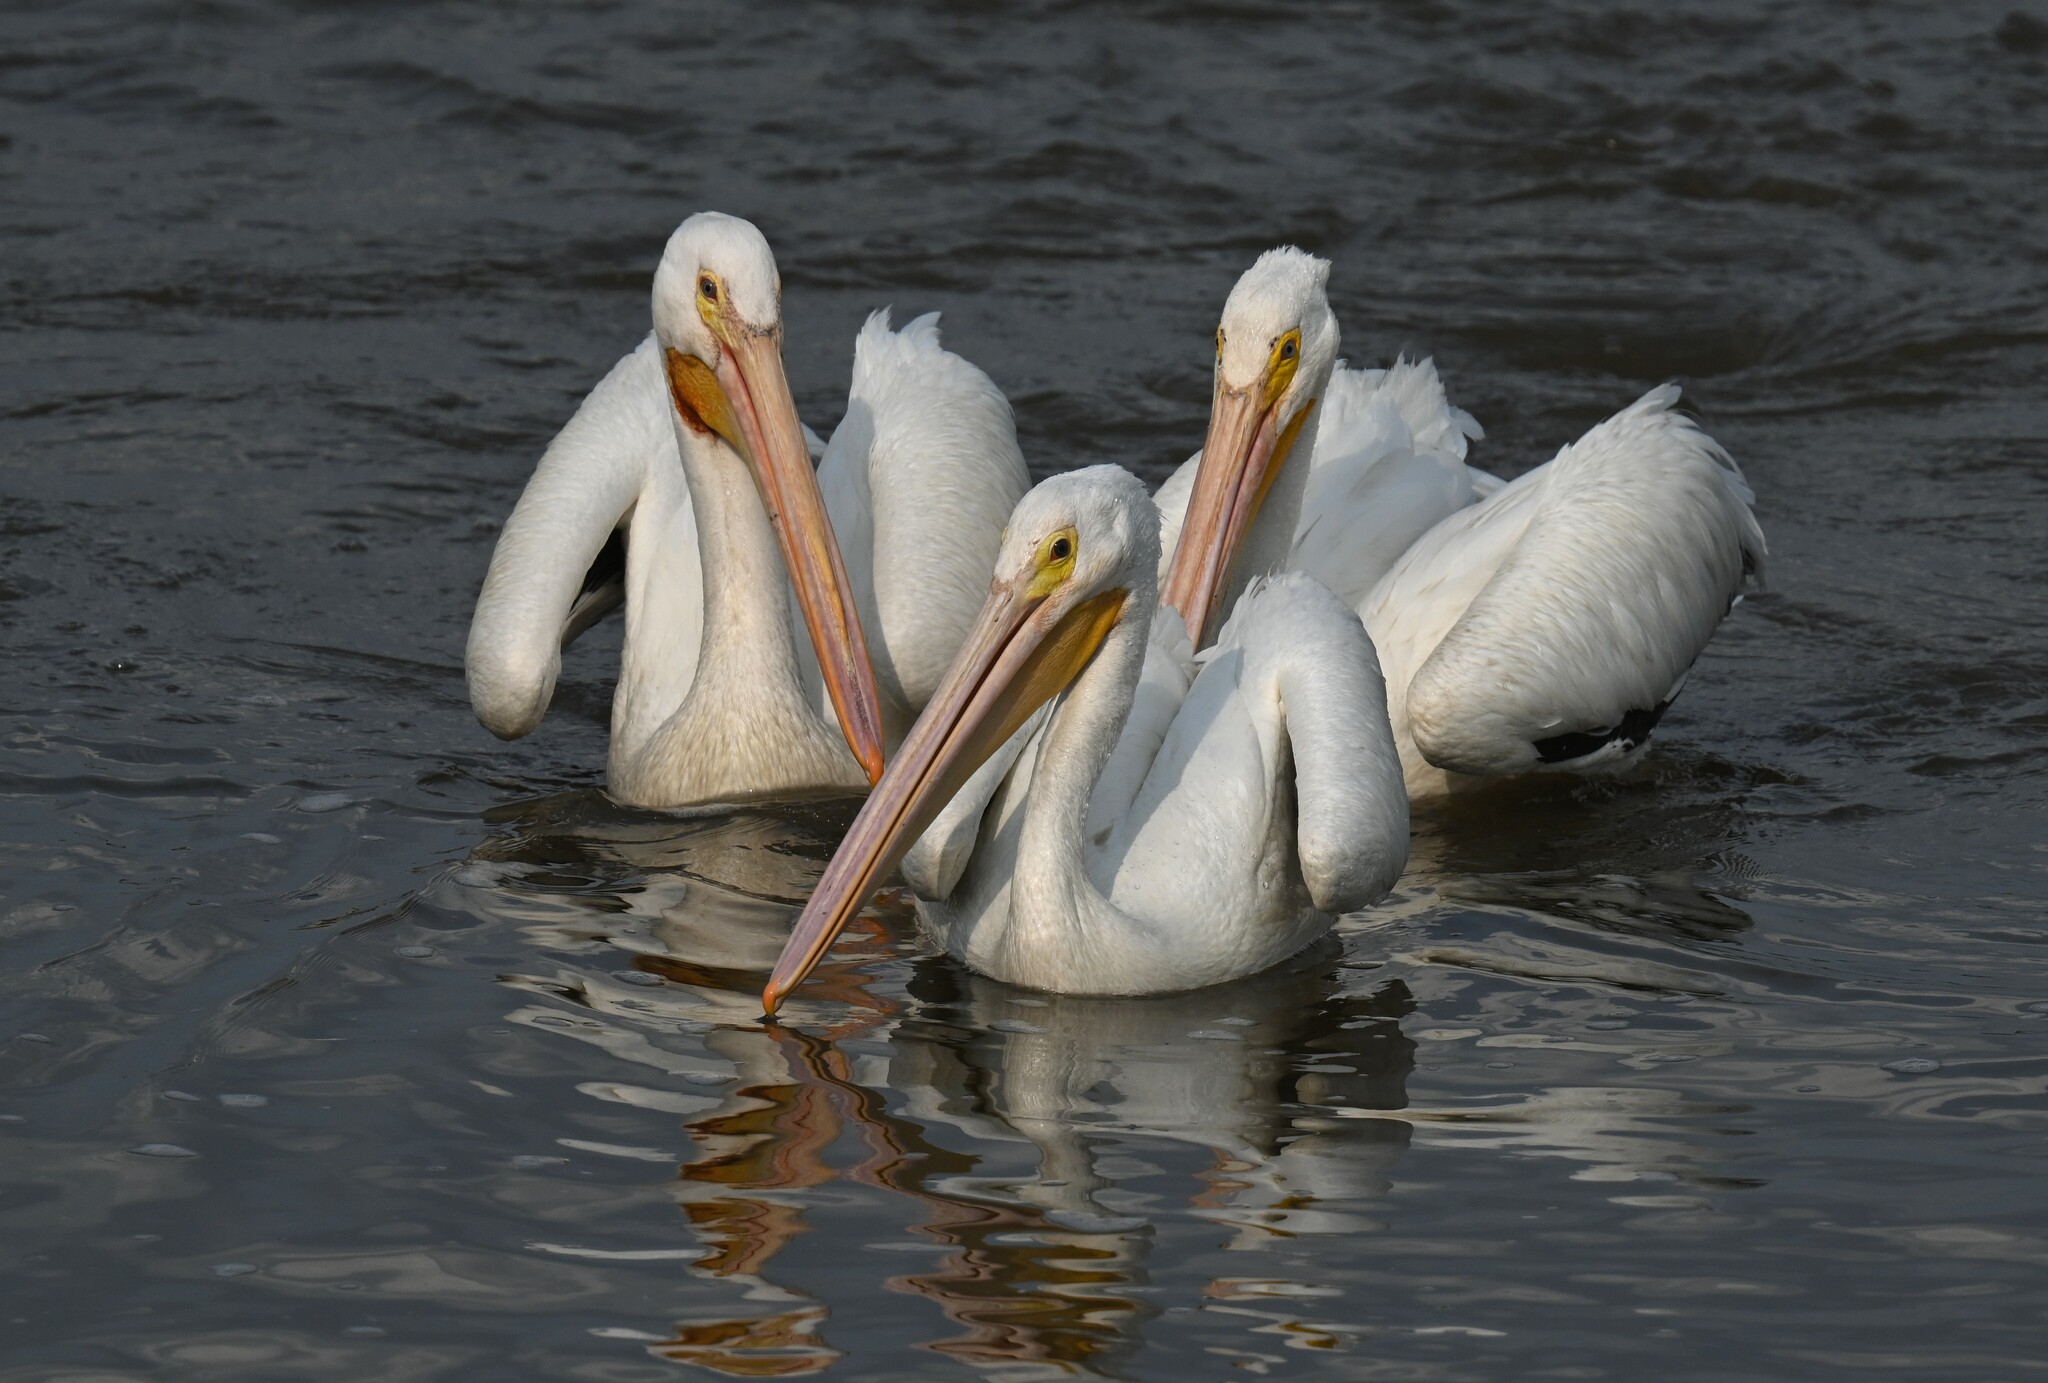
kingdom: Animalia
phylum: Chordata
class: Aves
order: Pelecaniformes
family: Pelecanidae
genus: Pelecanus
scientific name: Pelecanus erythrorhynchos
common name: American white pelican
